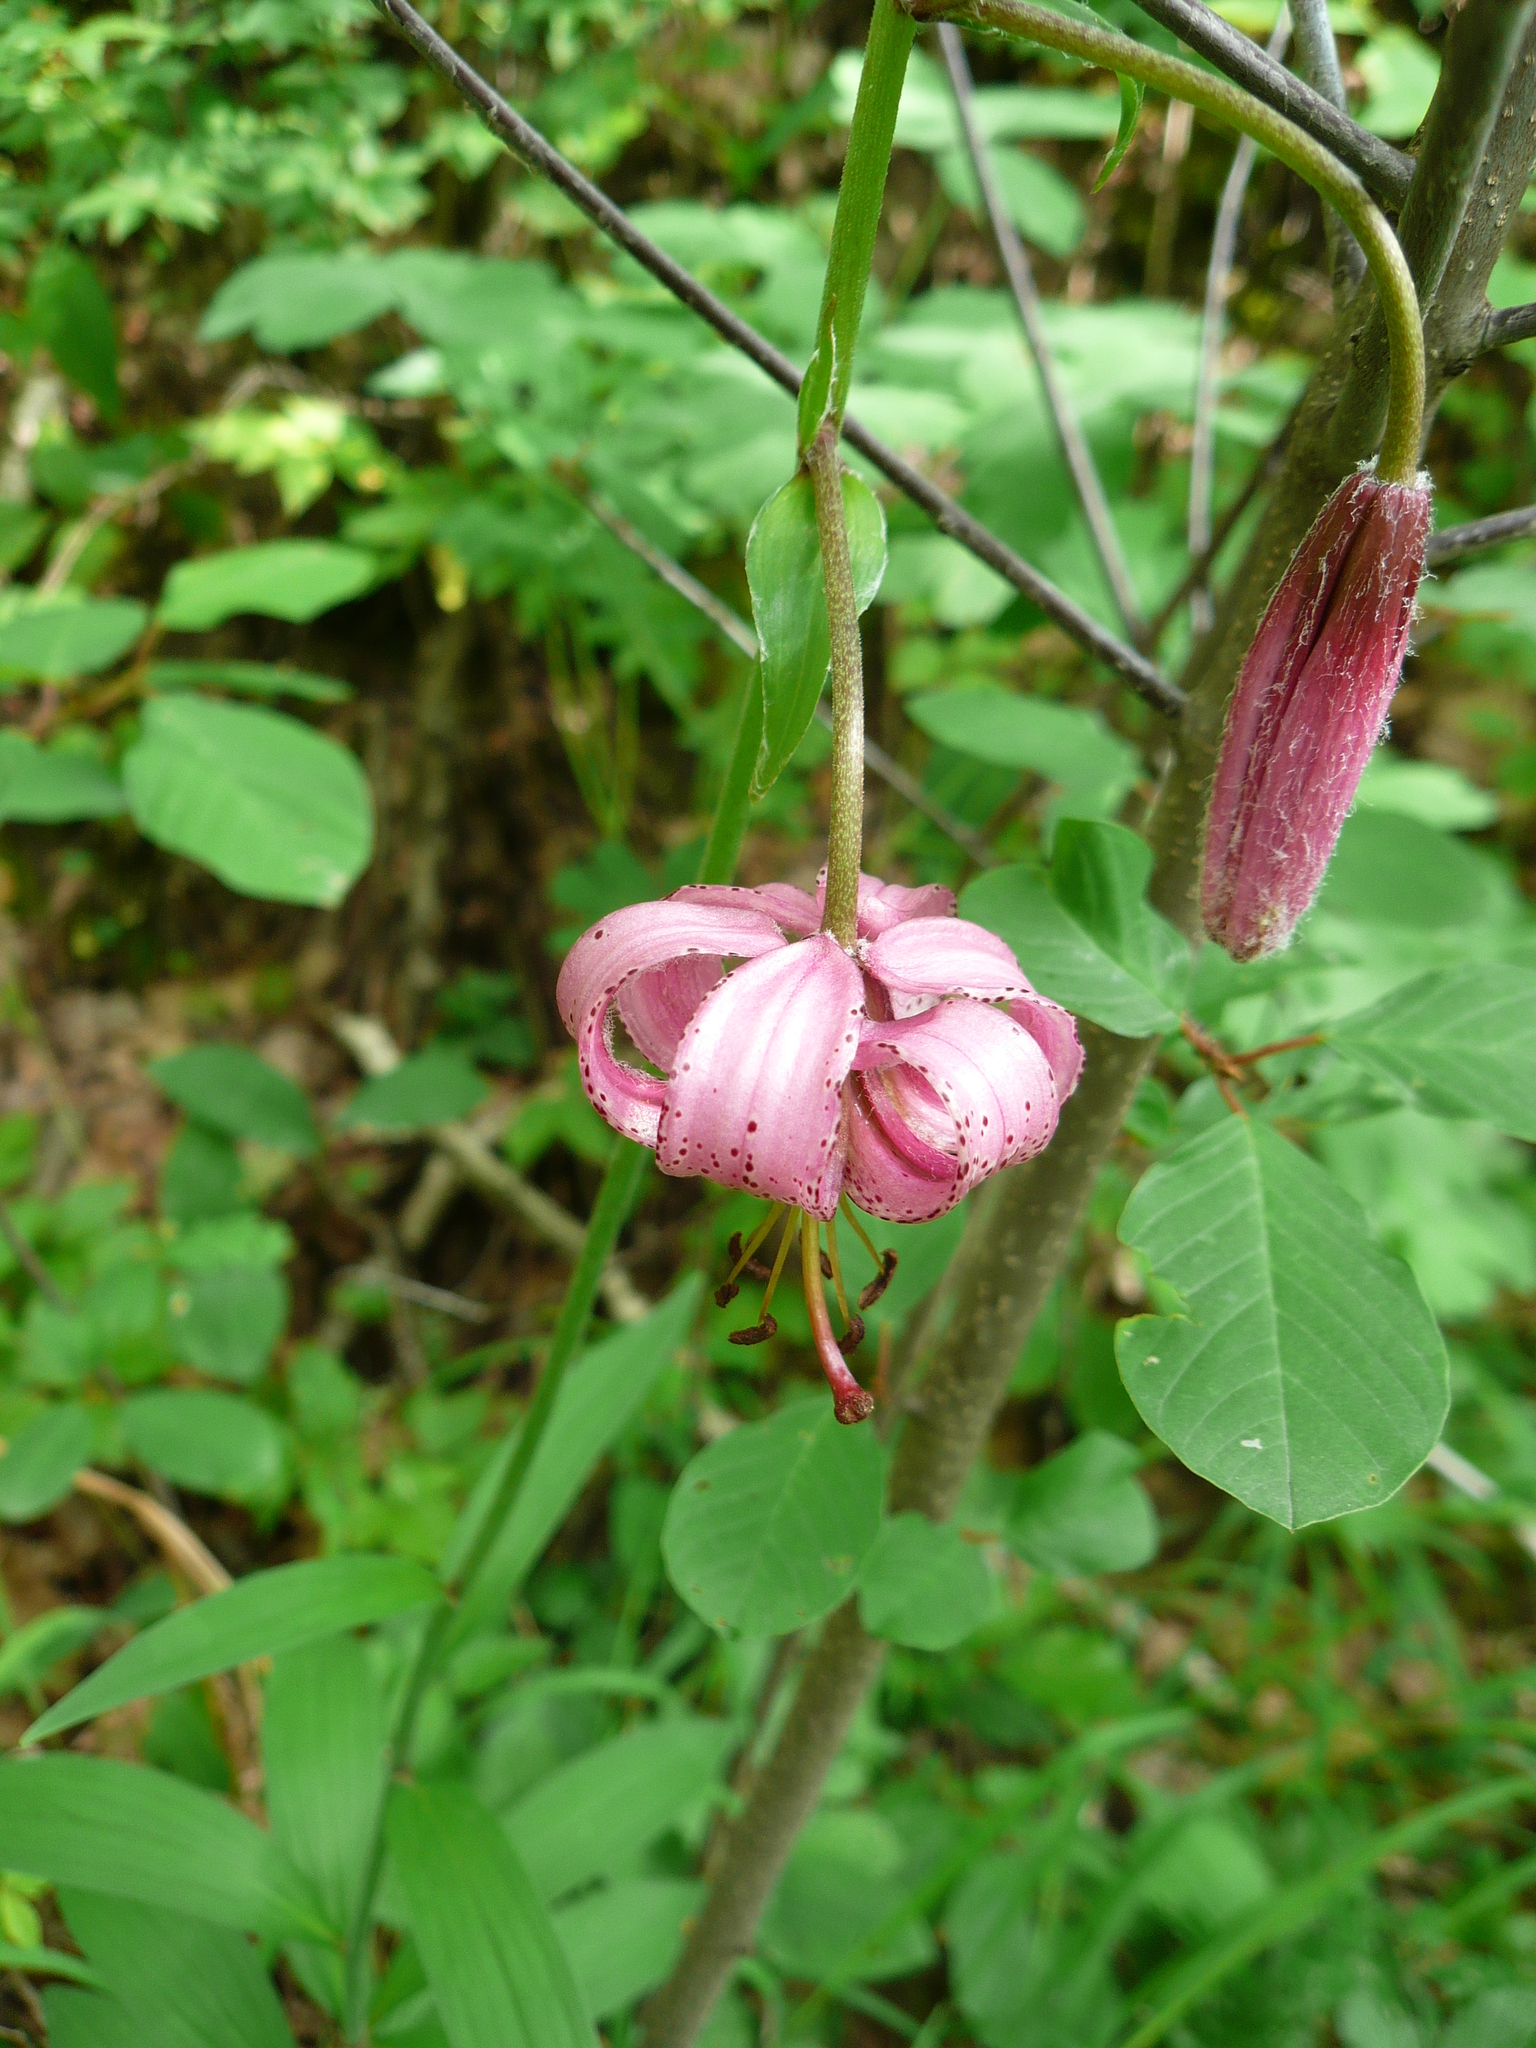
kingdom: Plantae
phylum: Tracheophyta
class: Liliopsida
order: Liliales
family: Liliaceae
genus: Lilium
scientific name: Lilium martagon
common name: Martagon lily
